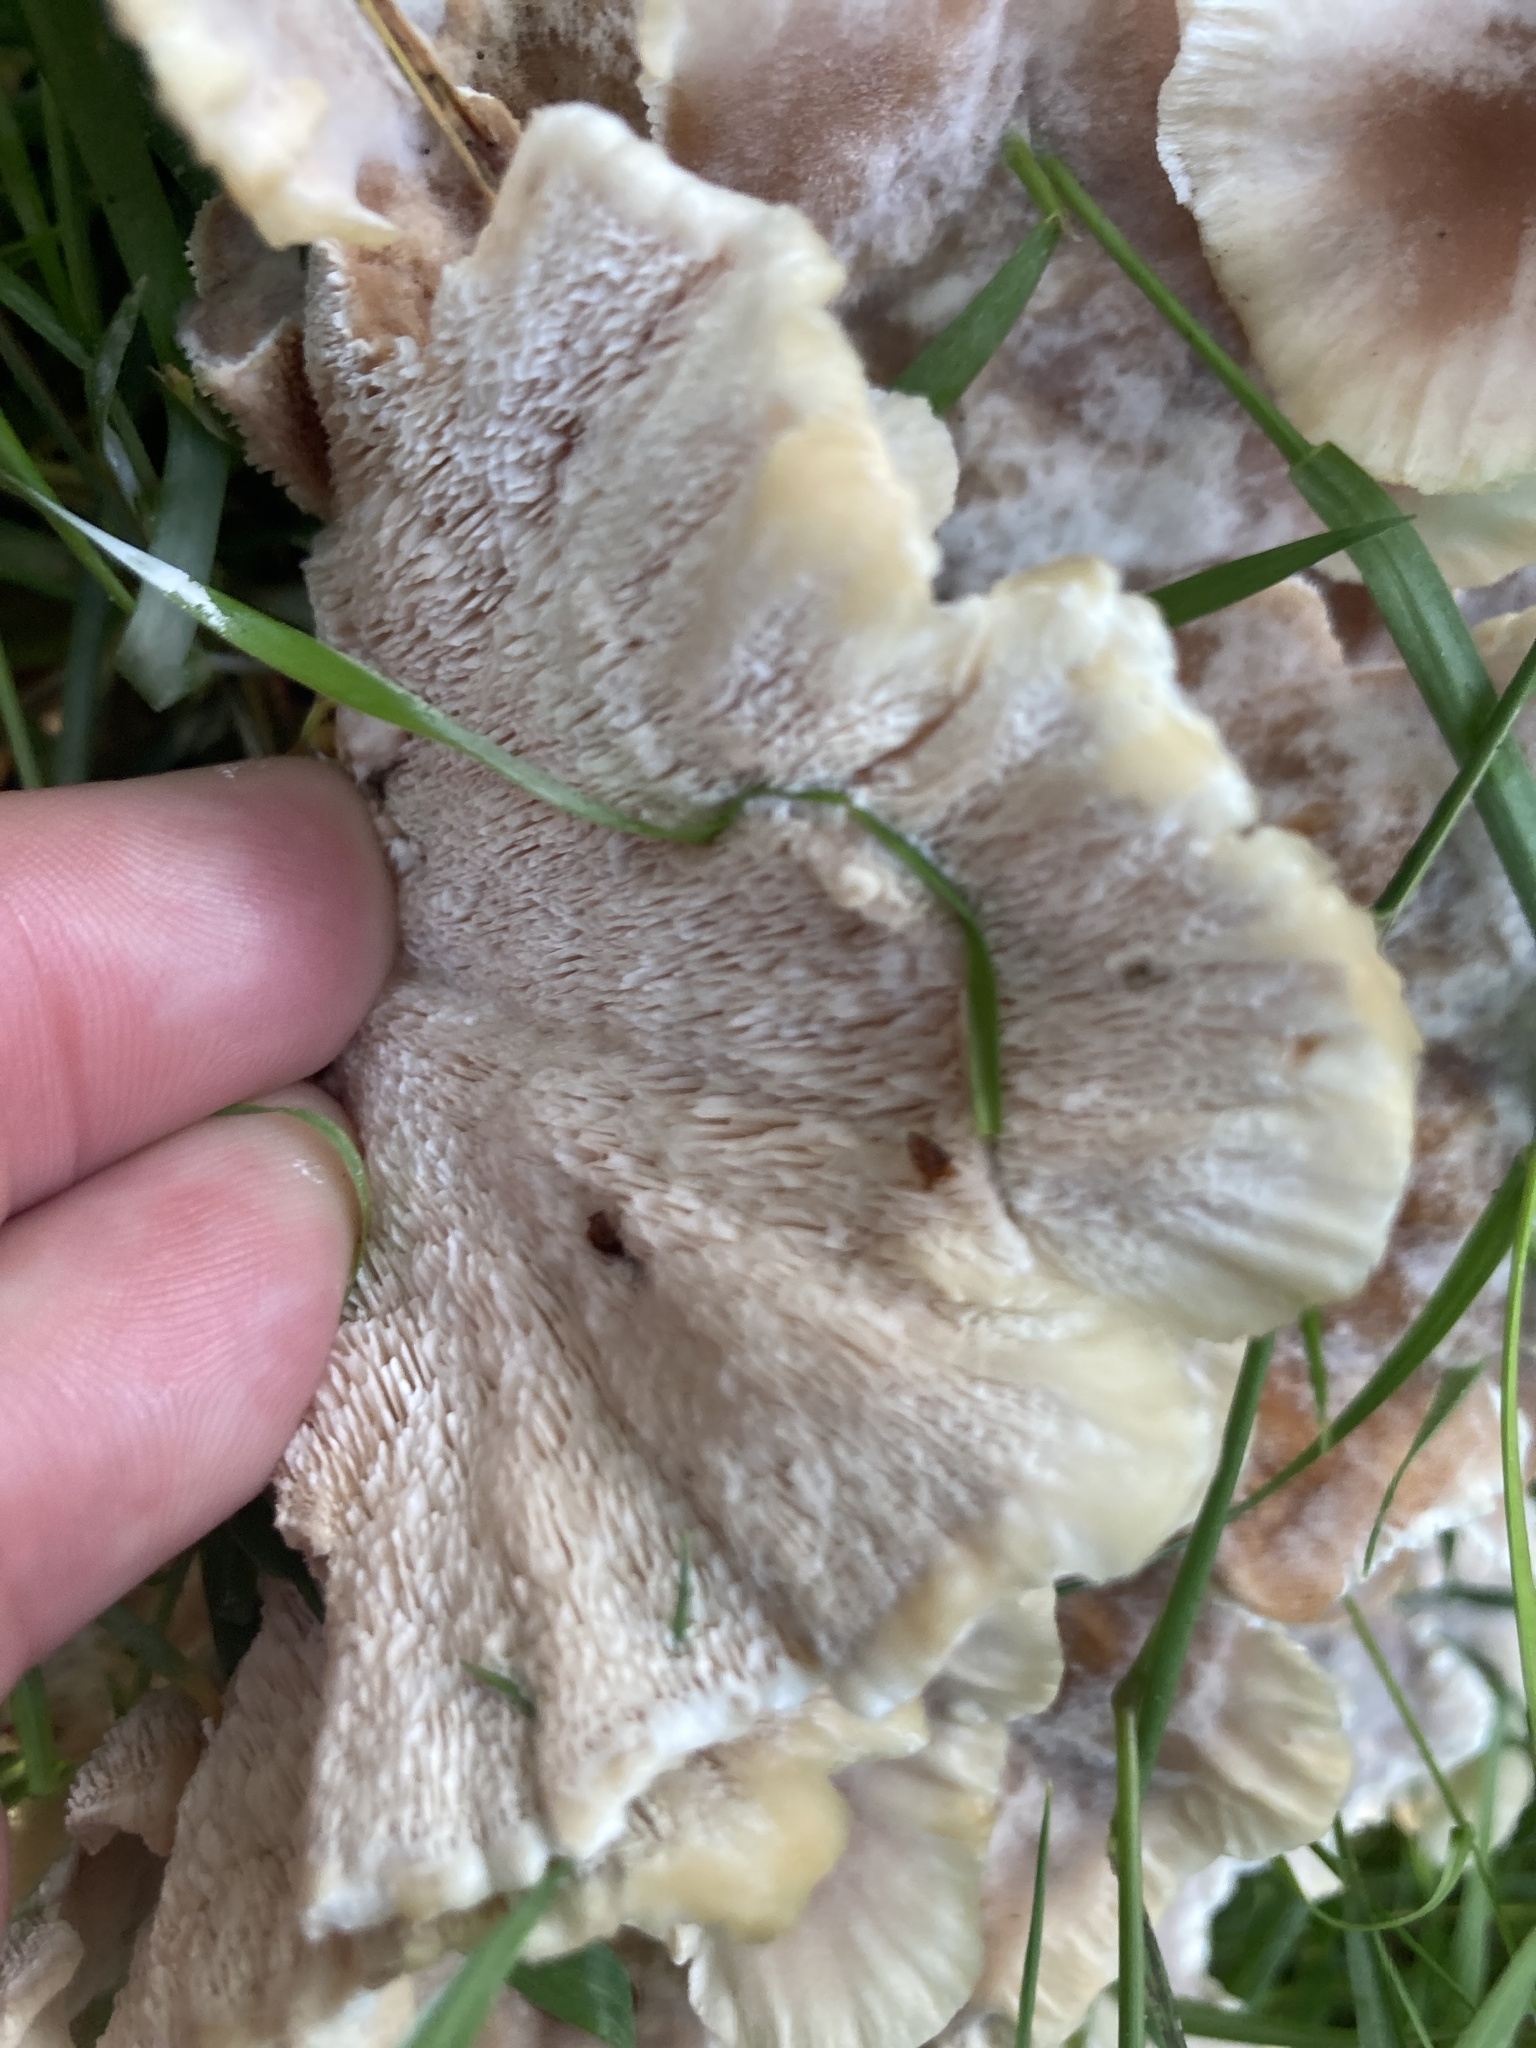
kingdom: Fungi
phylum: Basidiomycota
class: Agaricomycetes
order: Polyporales
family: Podoscyphaceae
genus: Abortiporus
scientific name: Abortiporus biennis
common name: Blushing rosette
